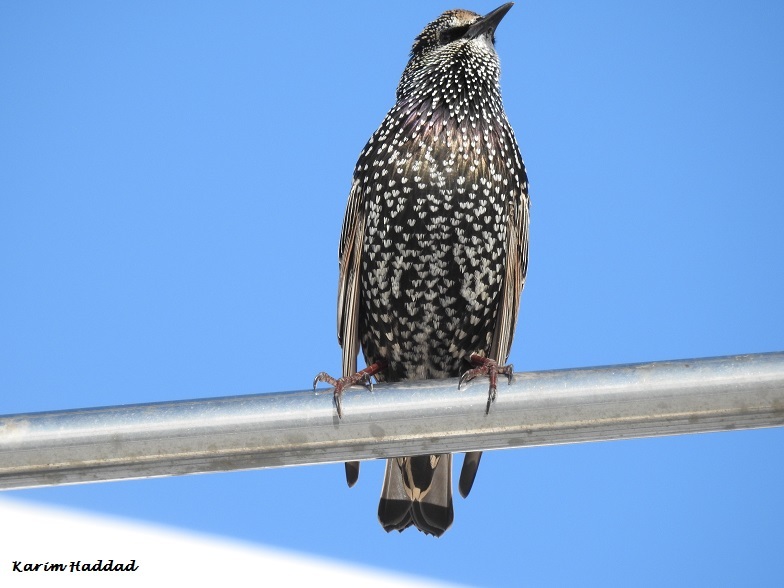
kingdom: Animalia
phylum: Chordata
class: Aves
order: Passeriformes
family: Sturnidae
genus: Sturnus
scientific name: Sturnus vulgaris
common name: Common starling
